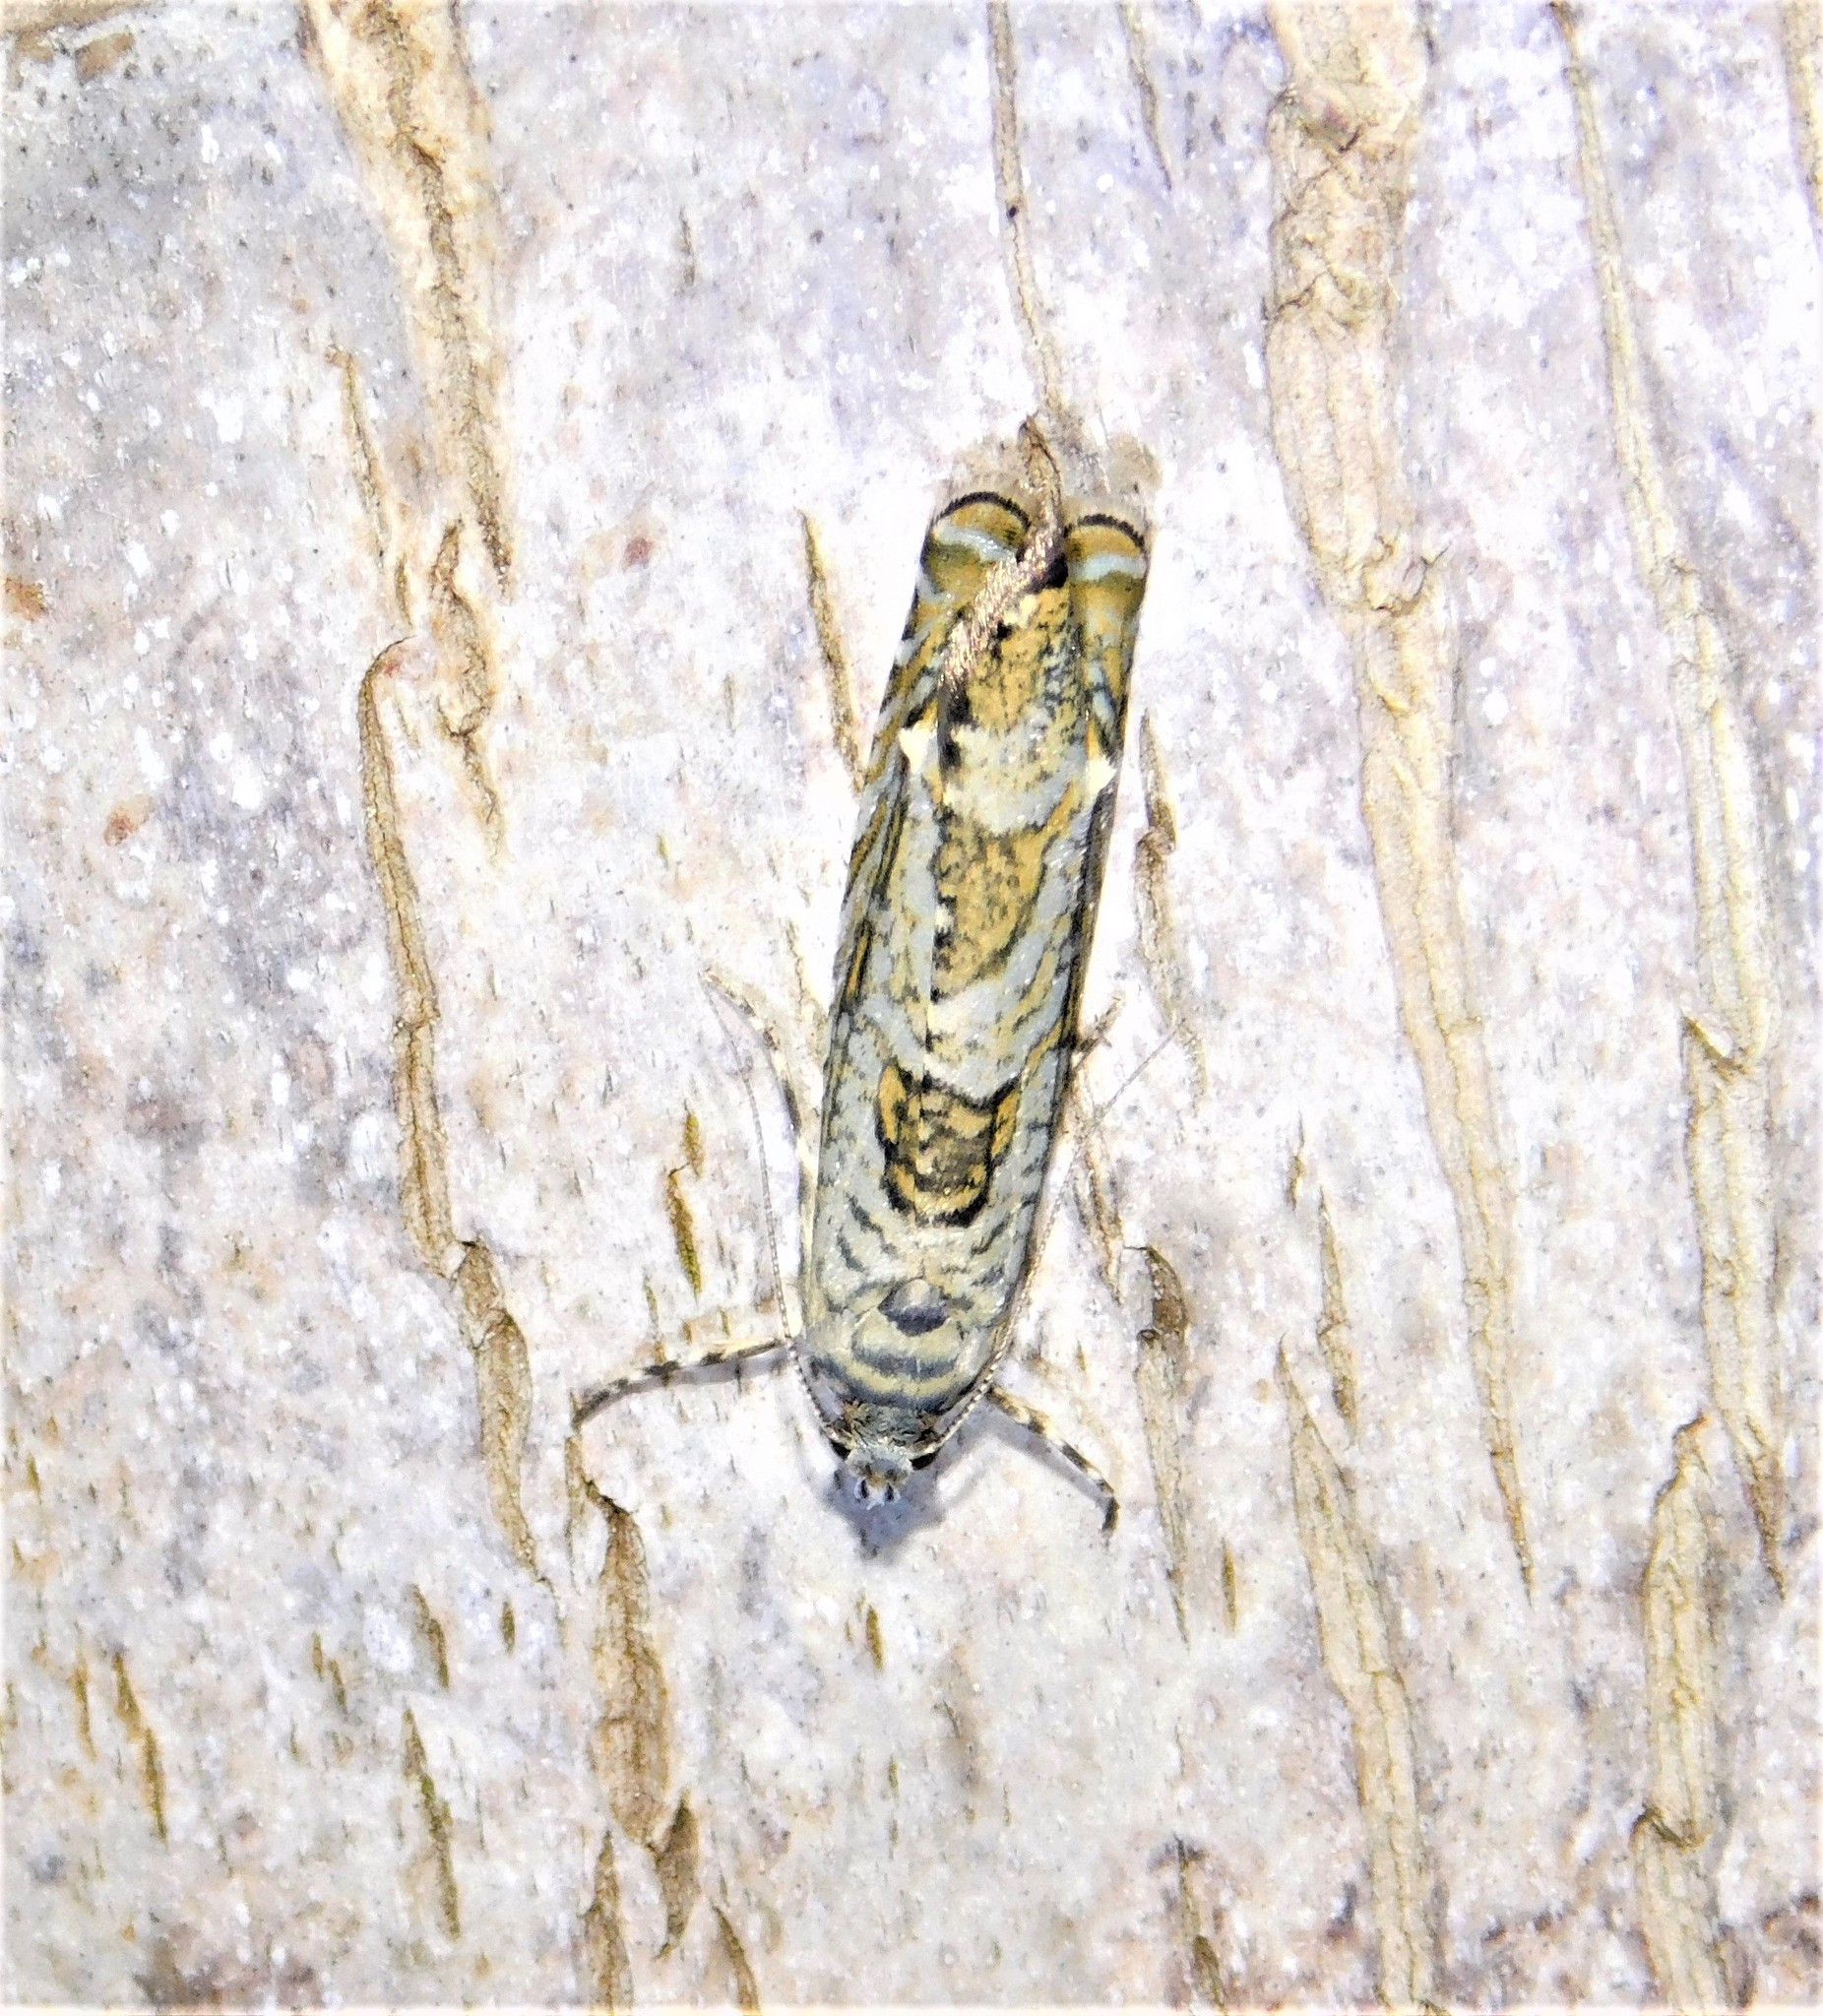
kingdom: Animalia
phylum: Arthropoda
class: Insecta
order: Lepidoptera
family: Plutellidae
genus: Doxophyrtis
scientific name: Doxophyrtis hydrocosma
